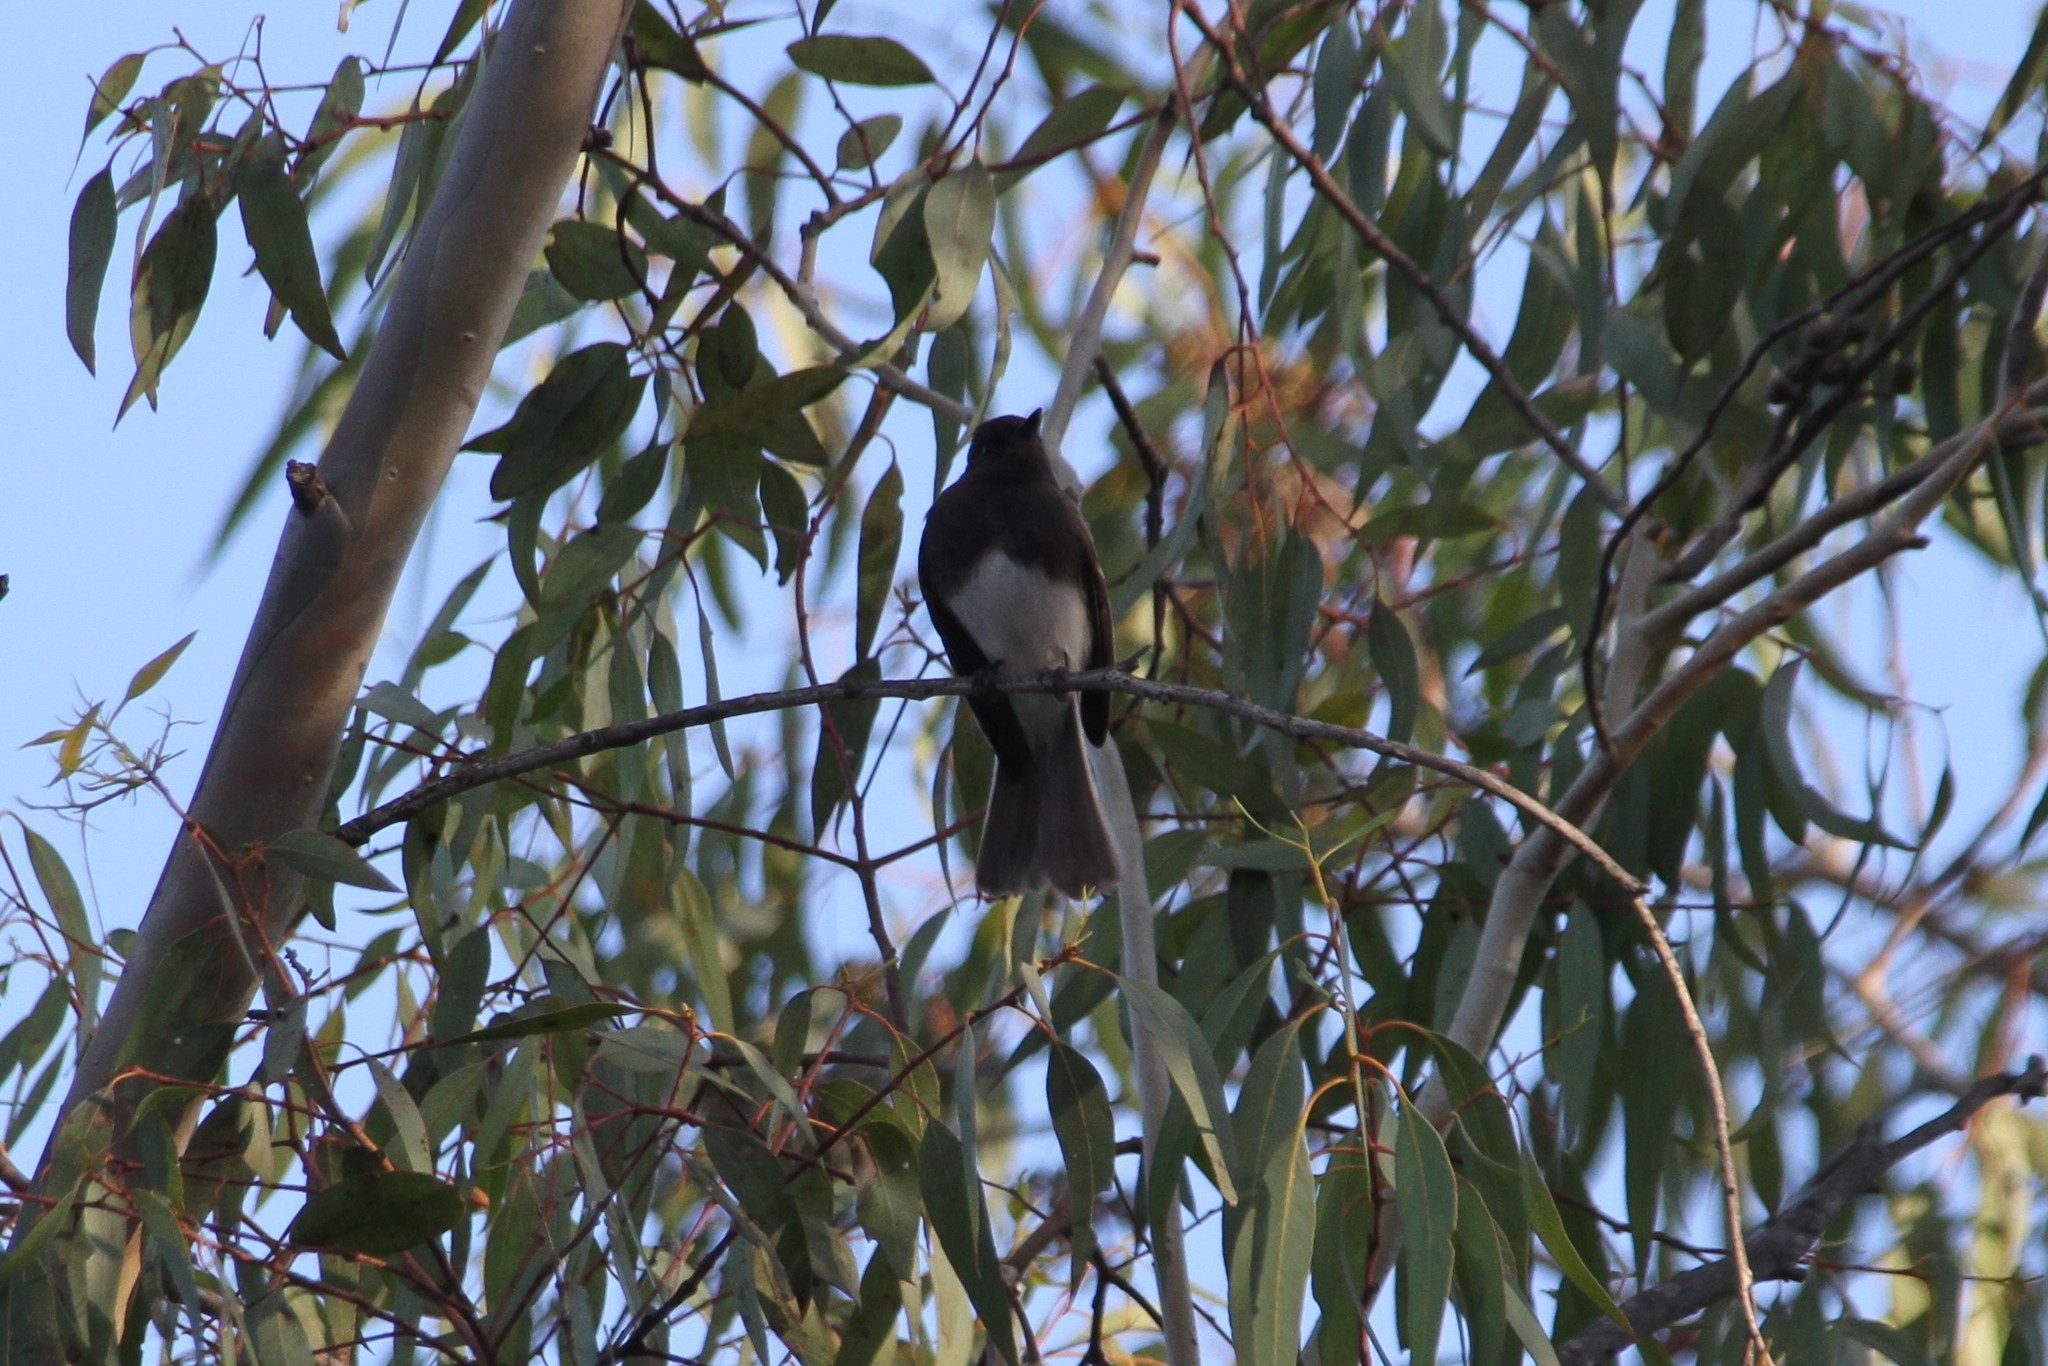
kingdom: Animalia
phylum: Chordata
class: Aves
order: Passeriformes
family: Tyrannidae
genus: Sayornis
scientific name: Sayornis nigricans
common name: Black phoebe
